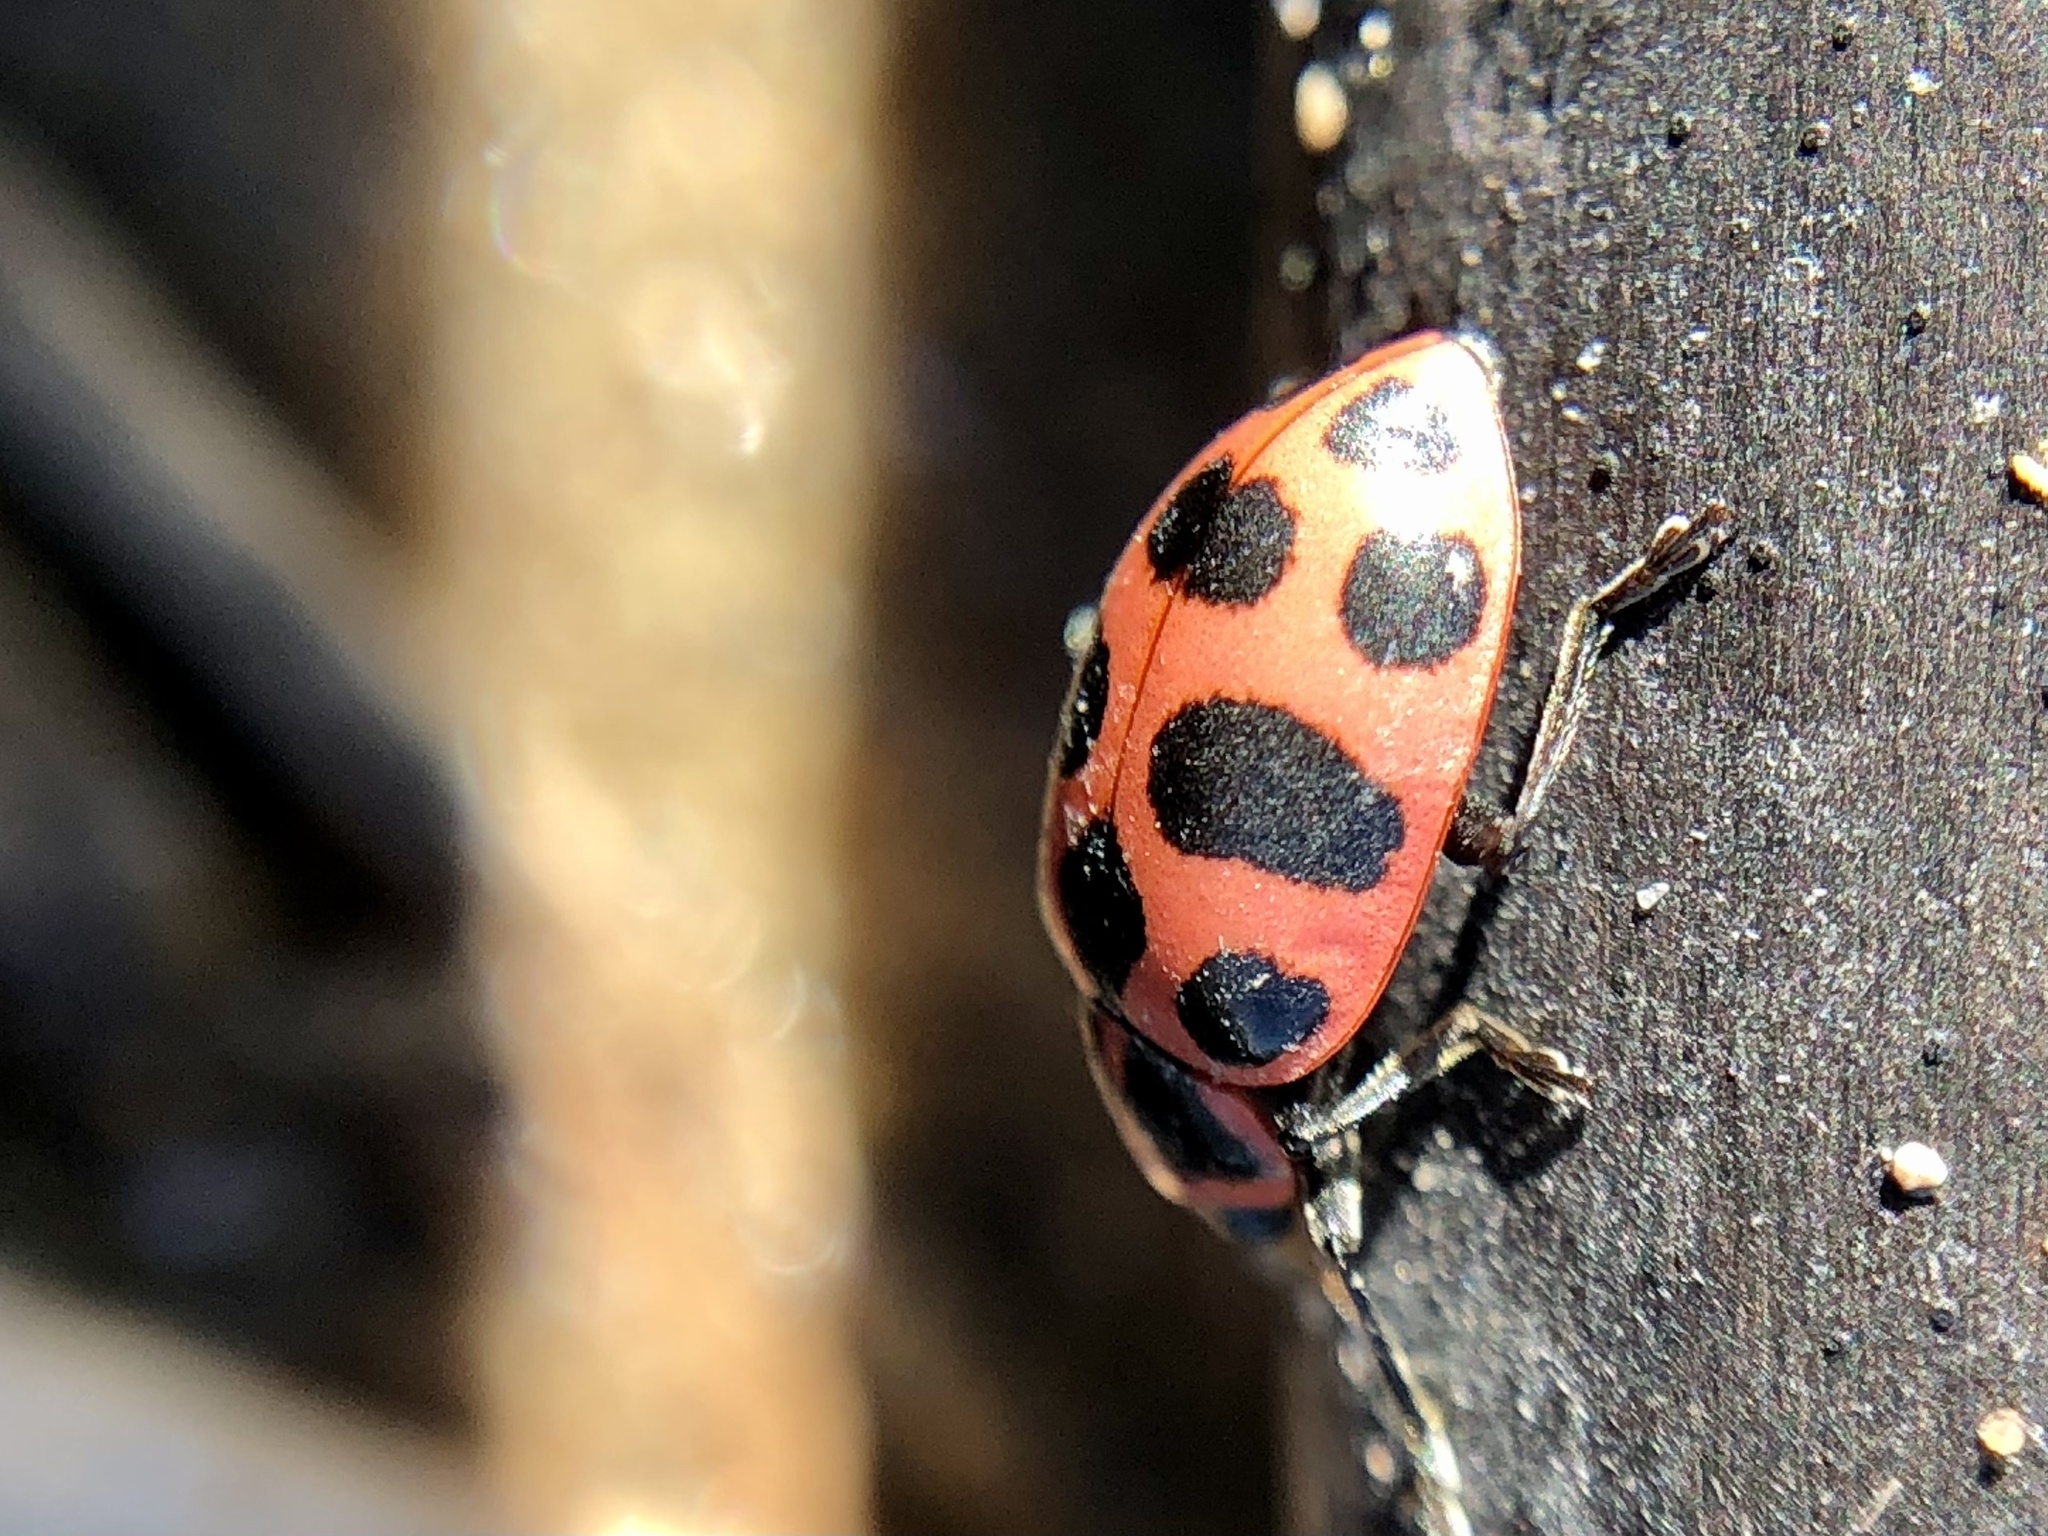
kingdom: Animalia
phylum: Arthropoda
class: Insecta
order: Coleoptera
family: Coccinellidae
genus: Coleomegilla
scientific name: Coleomegilla maculata
